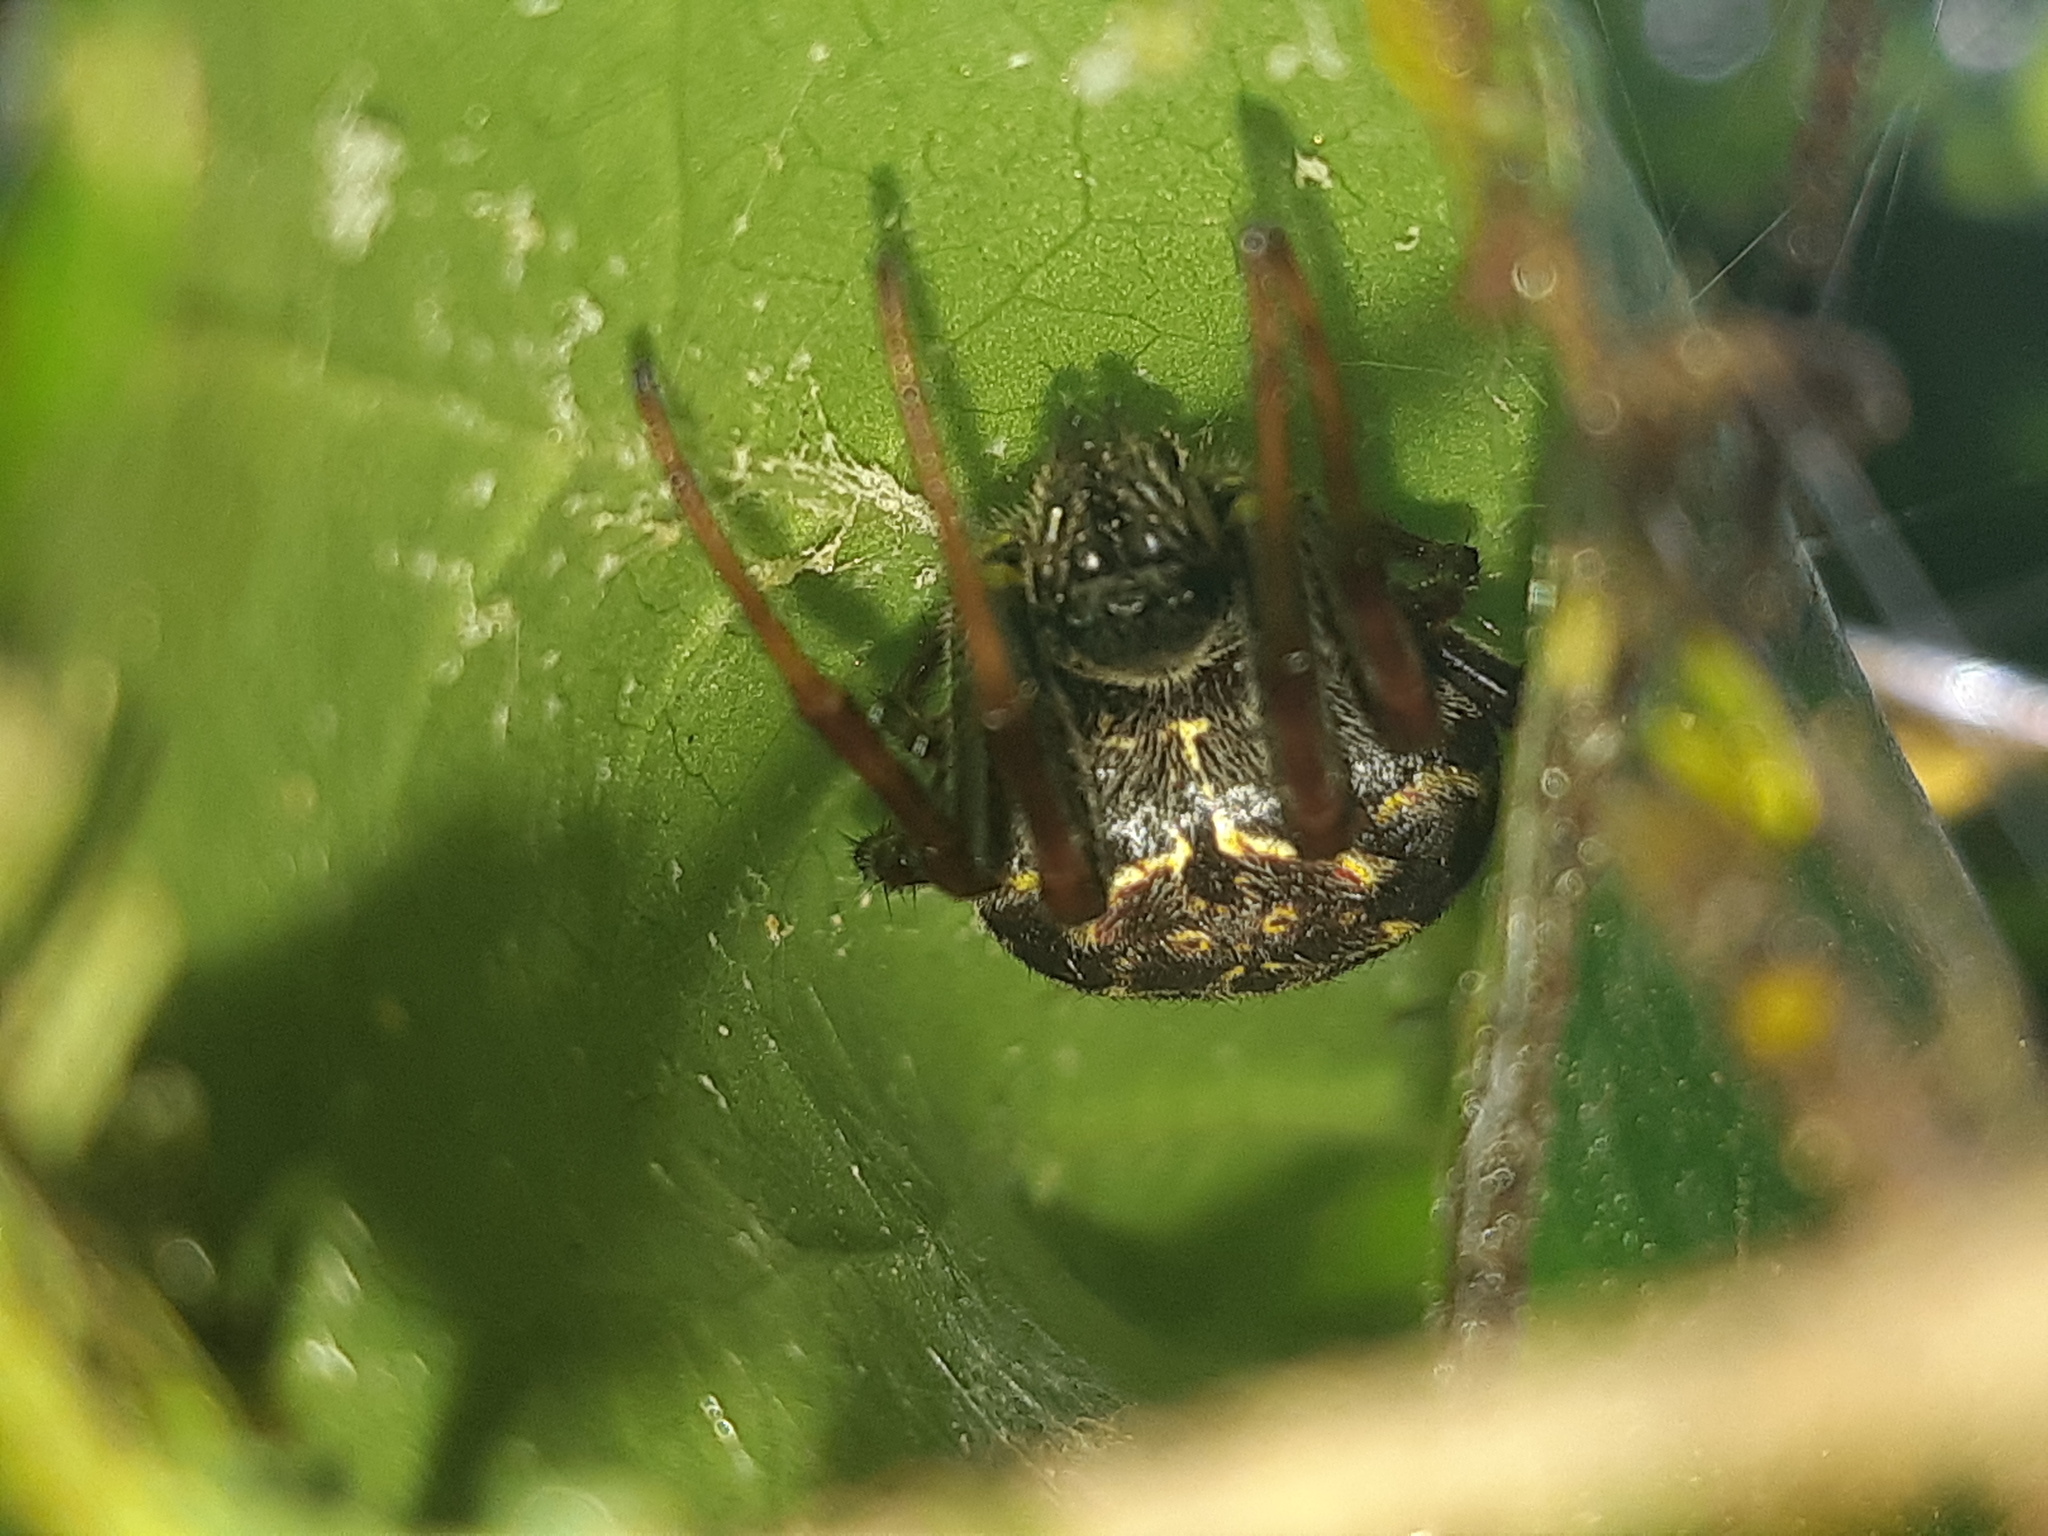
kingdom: Animalia
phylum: Arthropoda
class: Arachnida
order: Araneae
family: Araneidae
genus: Araneus
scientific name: Araneus granadensis
